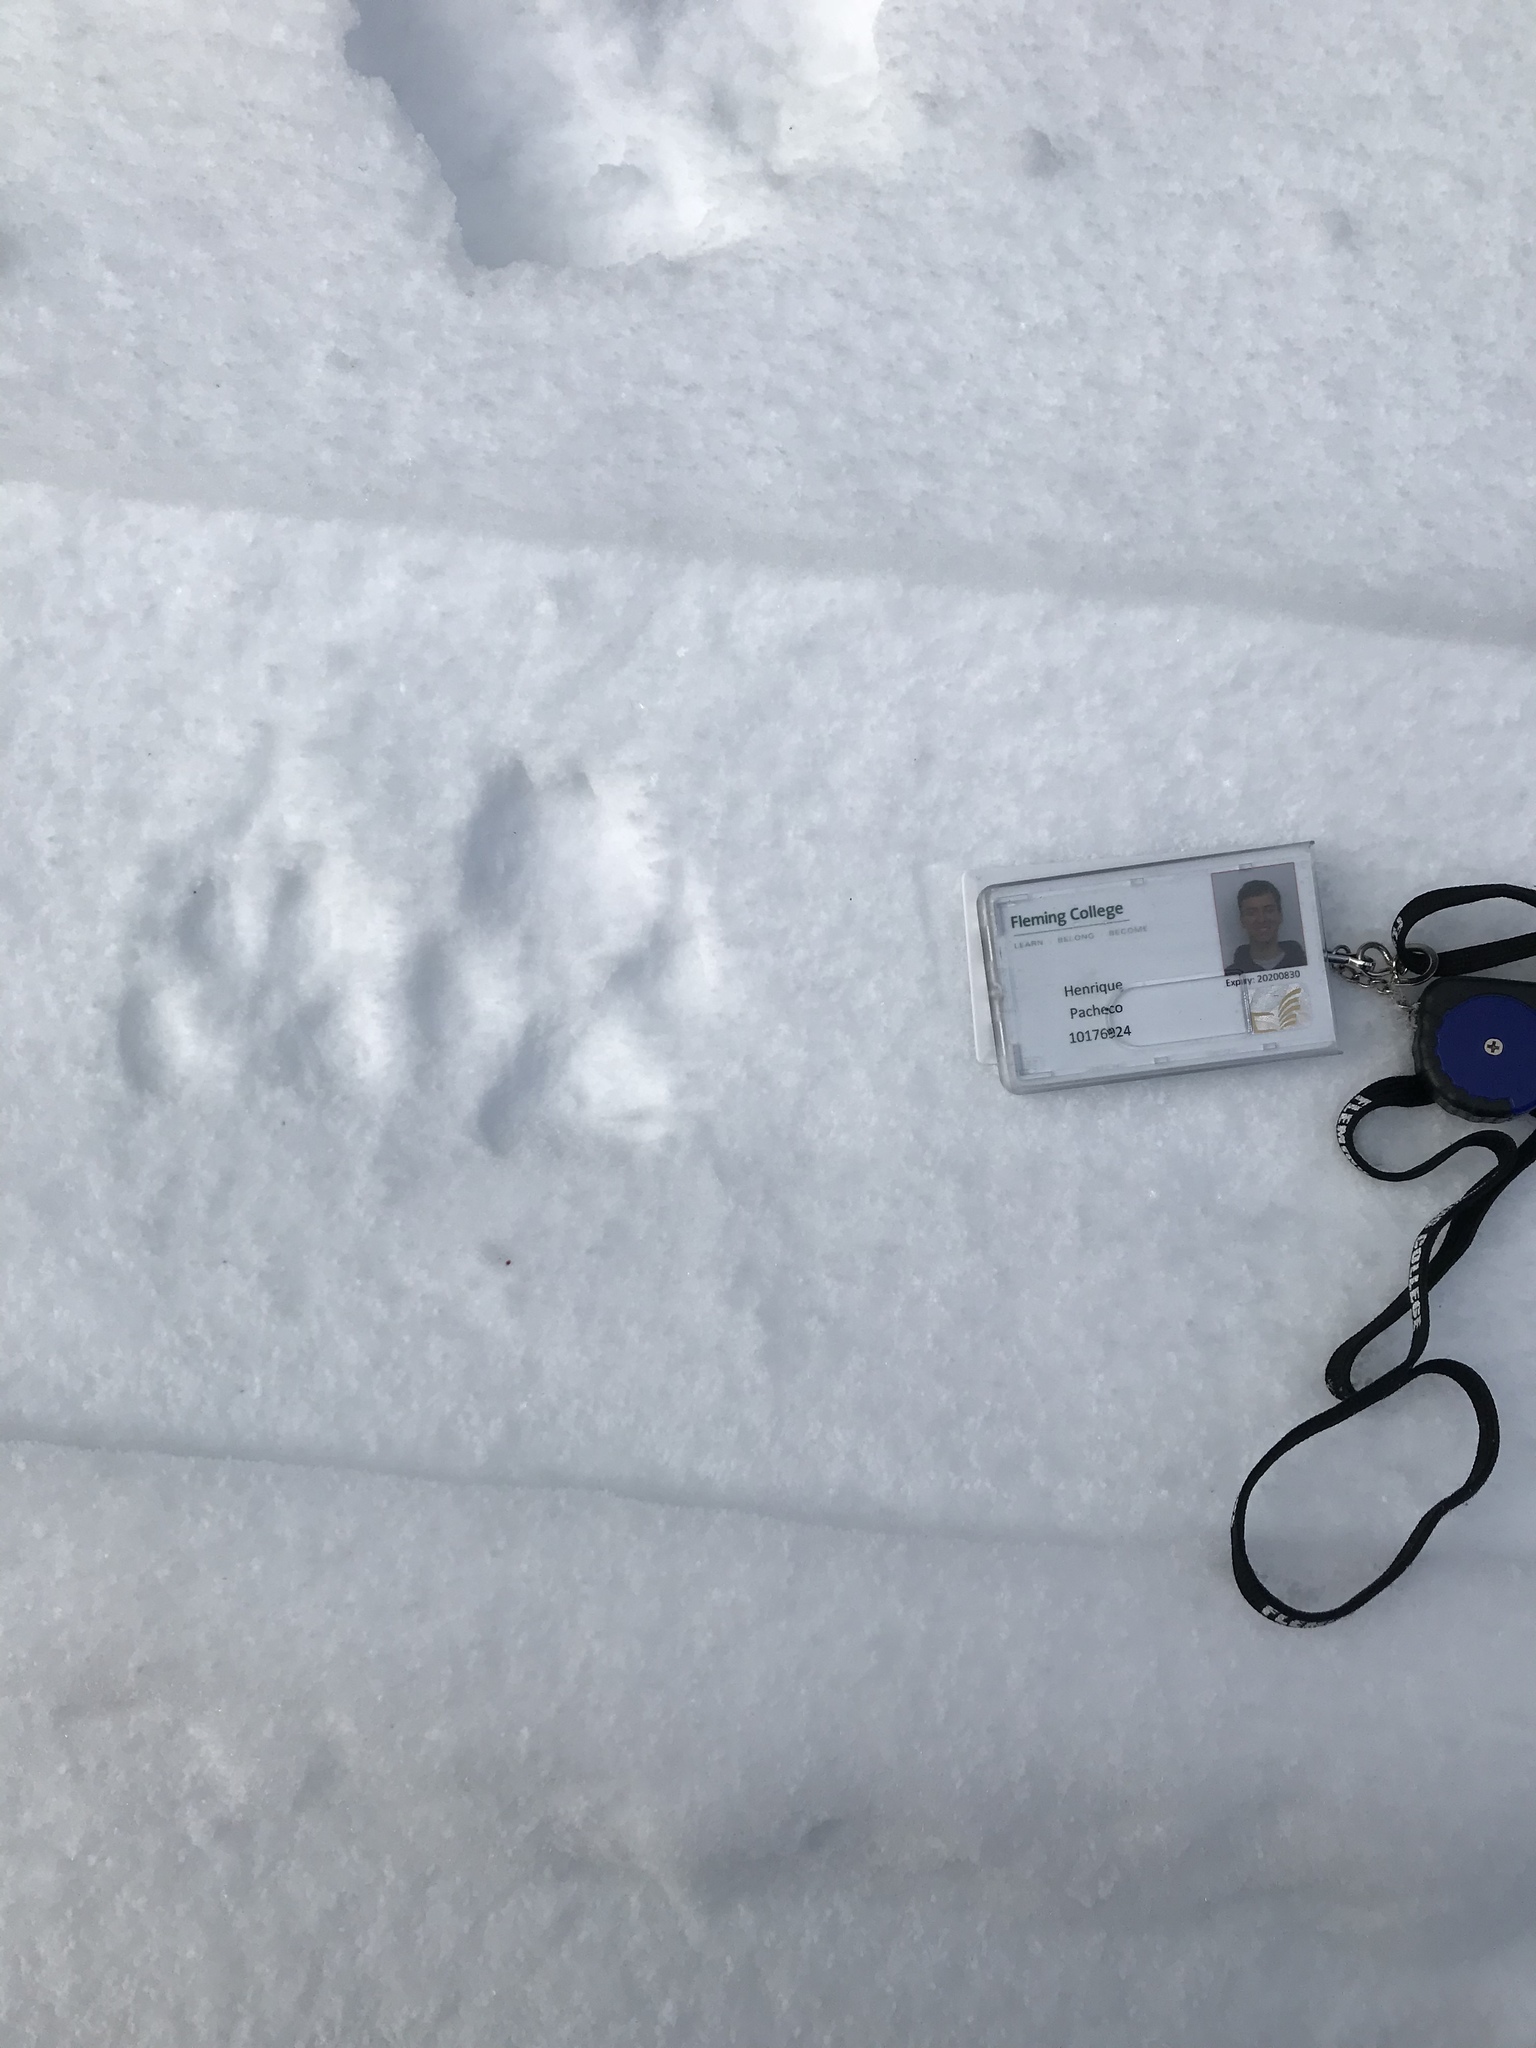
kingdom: Animalia
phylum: Chordata
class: Mammalia
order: Carnivora
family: Canidae
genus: Canis
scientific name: Canis lycaon
